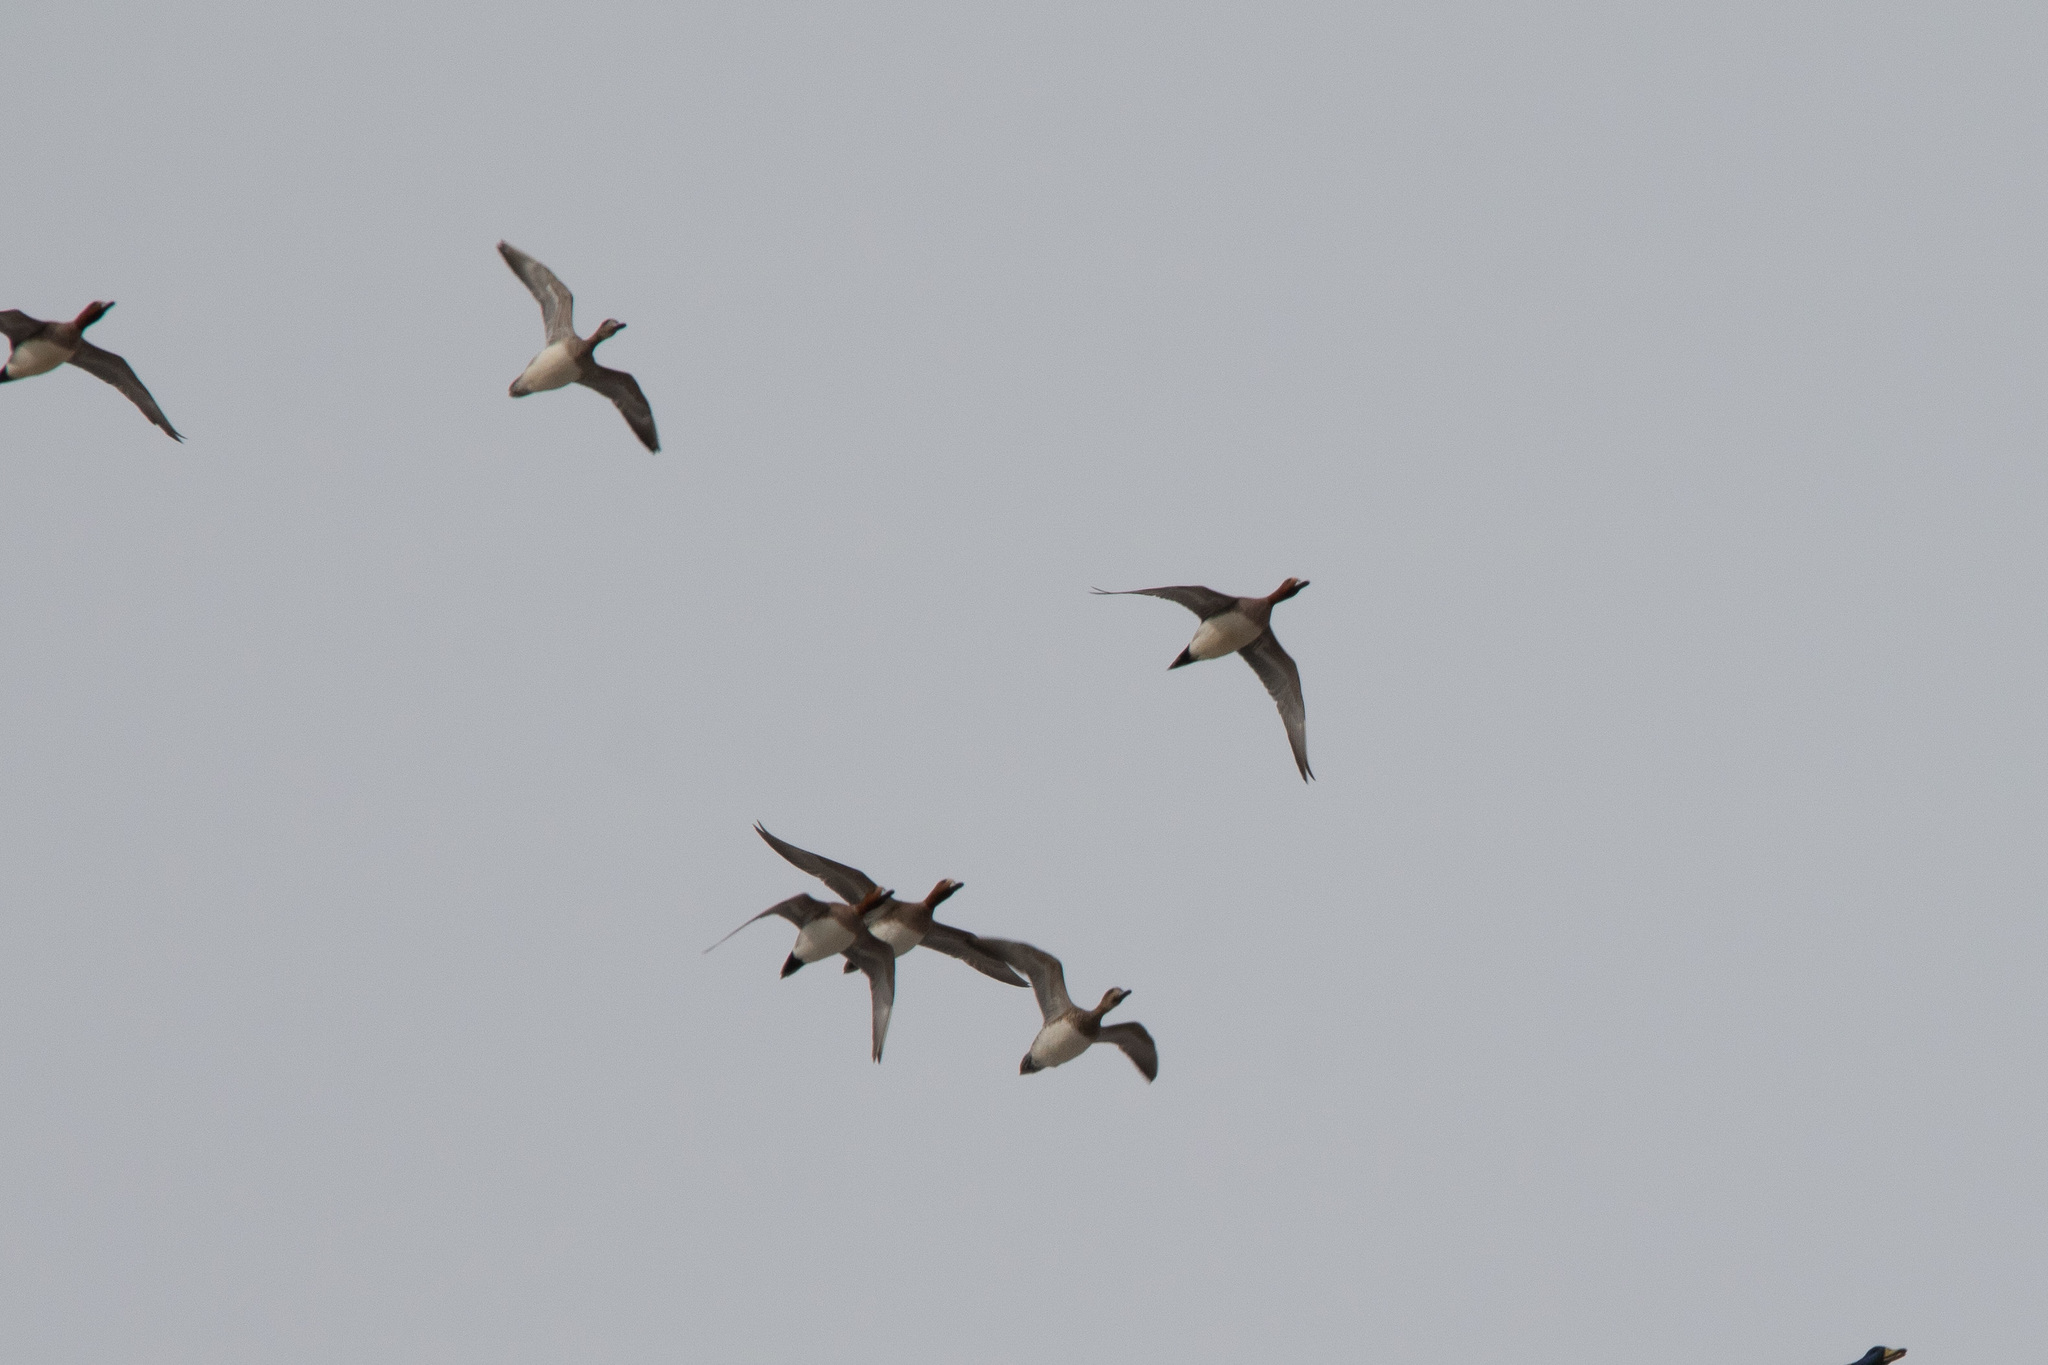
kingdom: Animalia
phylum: Chordata
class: Aves
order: Anseriformes
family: Anatidae
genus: Mareca
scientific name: Mareca penelope
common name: Eurasian wigeon
